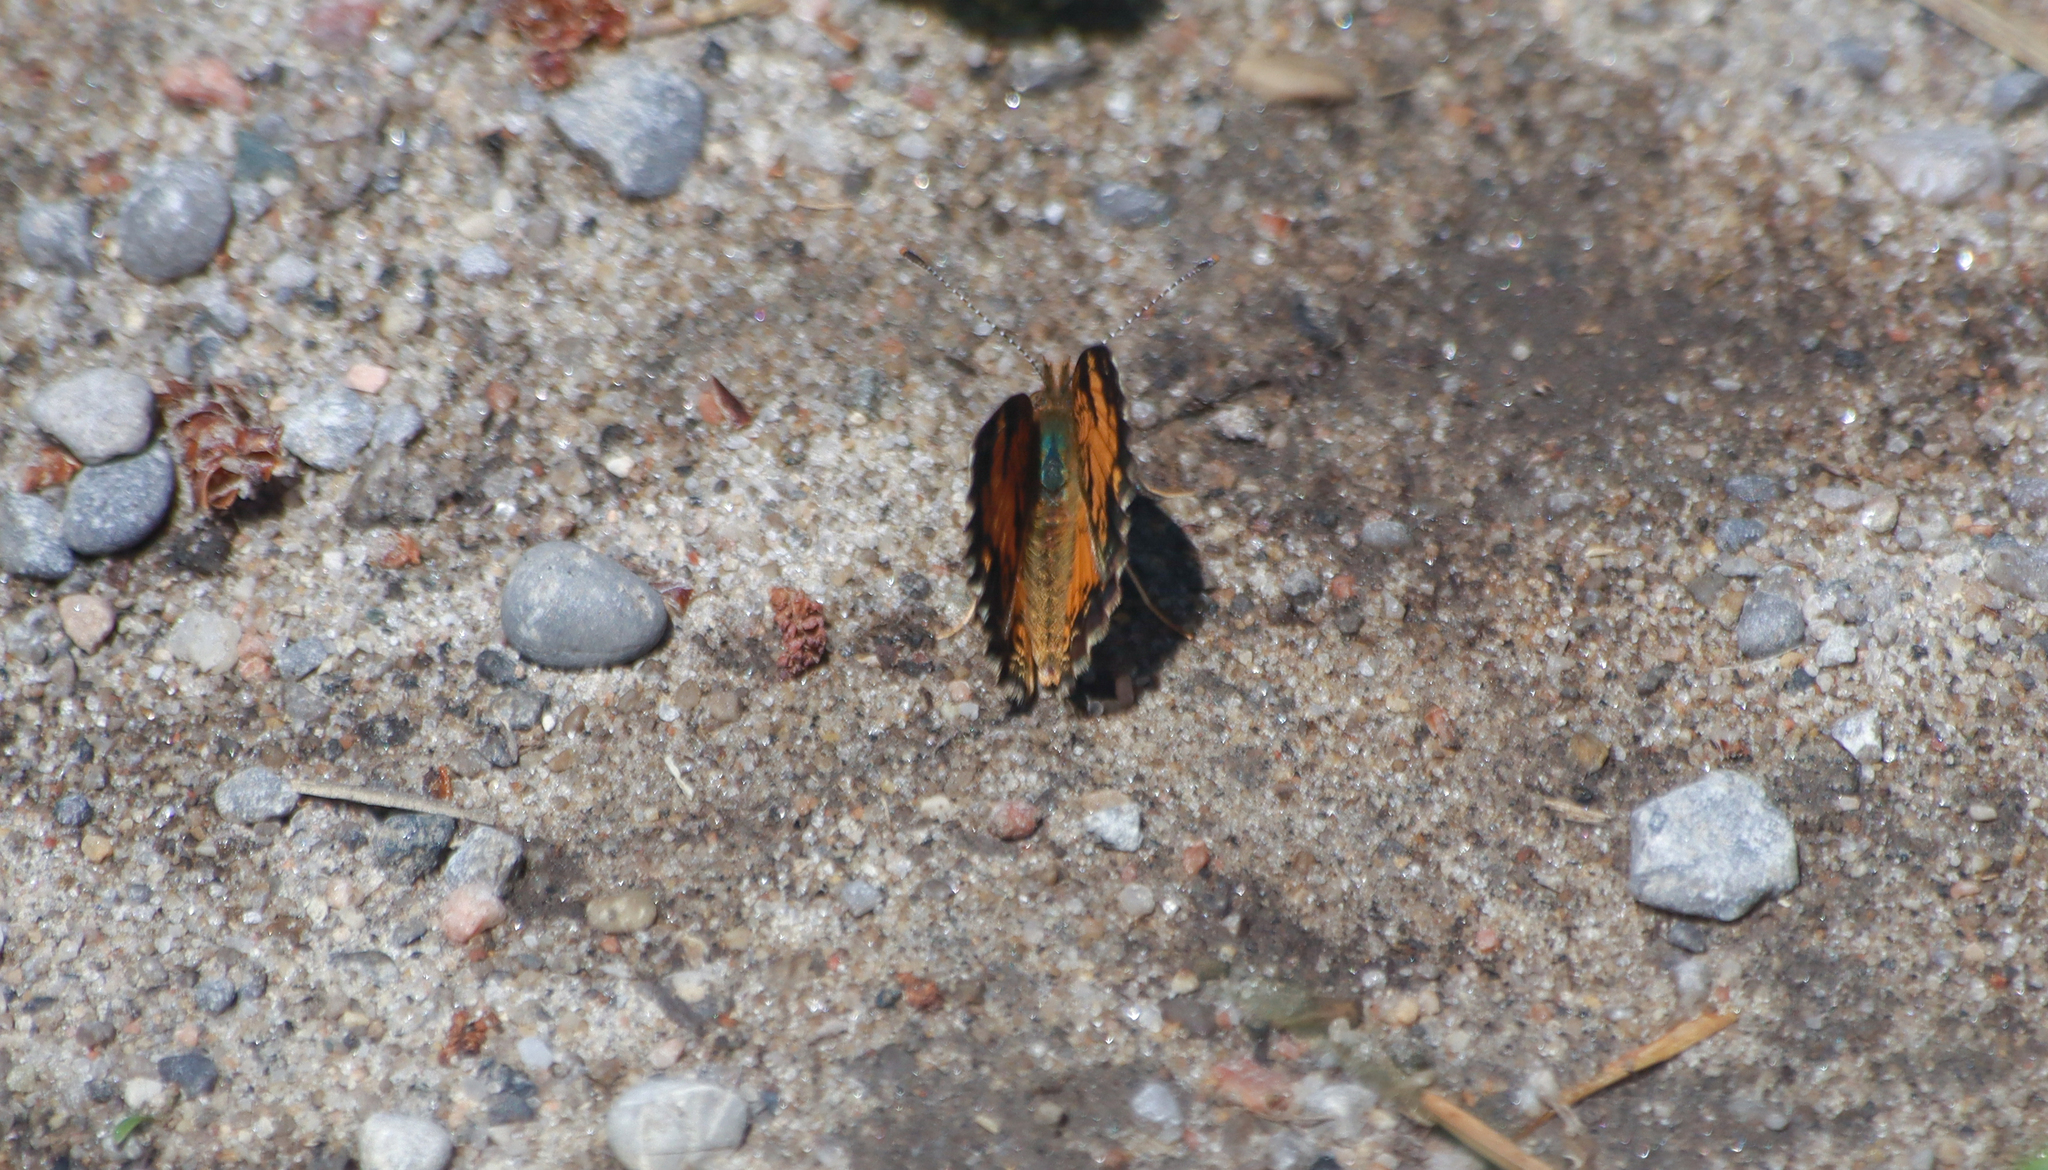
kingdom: Animalia
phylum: Arthropoda
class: Insecta
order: Lepidoptera
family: Nymphalidae
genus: Phyciodes
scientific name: Phyciodes tharos
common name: Pearl crescent
